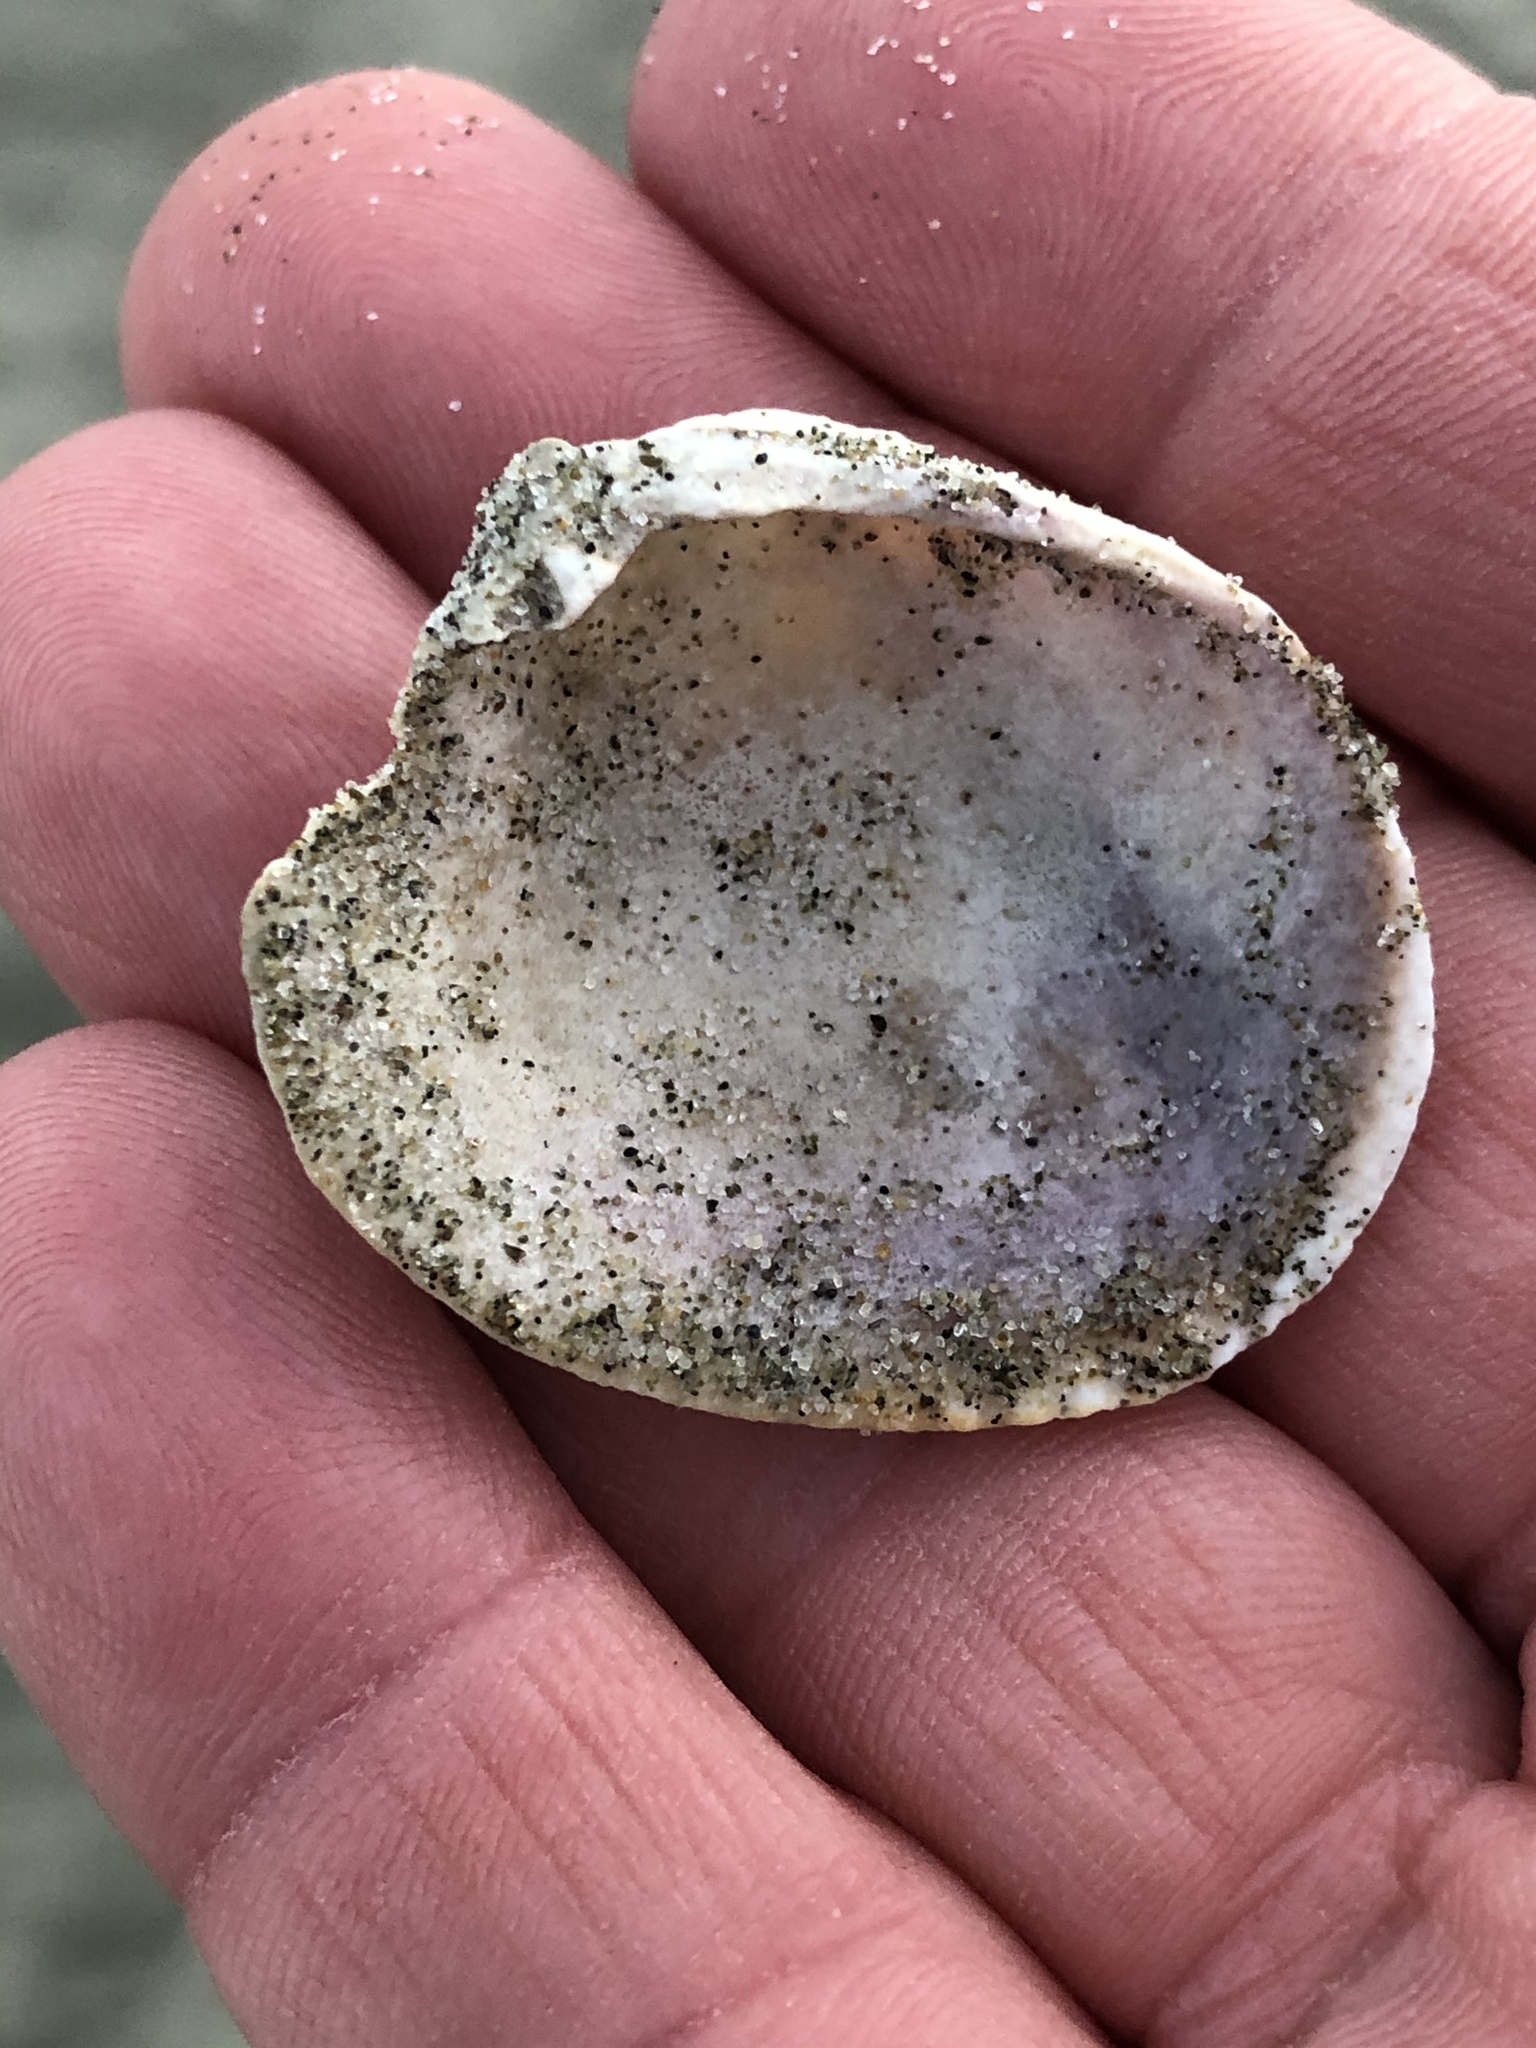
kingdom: Animalia
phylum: Mollusca
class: Bivalvia
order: Venerida
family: Veneridae
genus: Austrovenus
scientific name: Austrovenus stutchburyi
